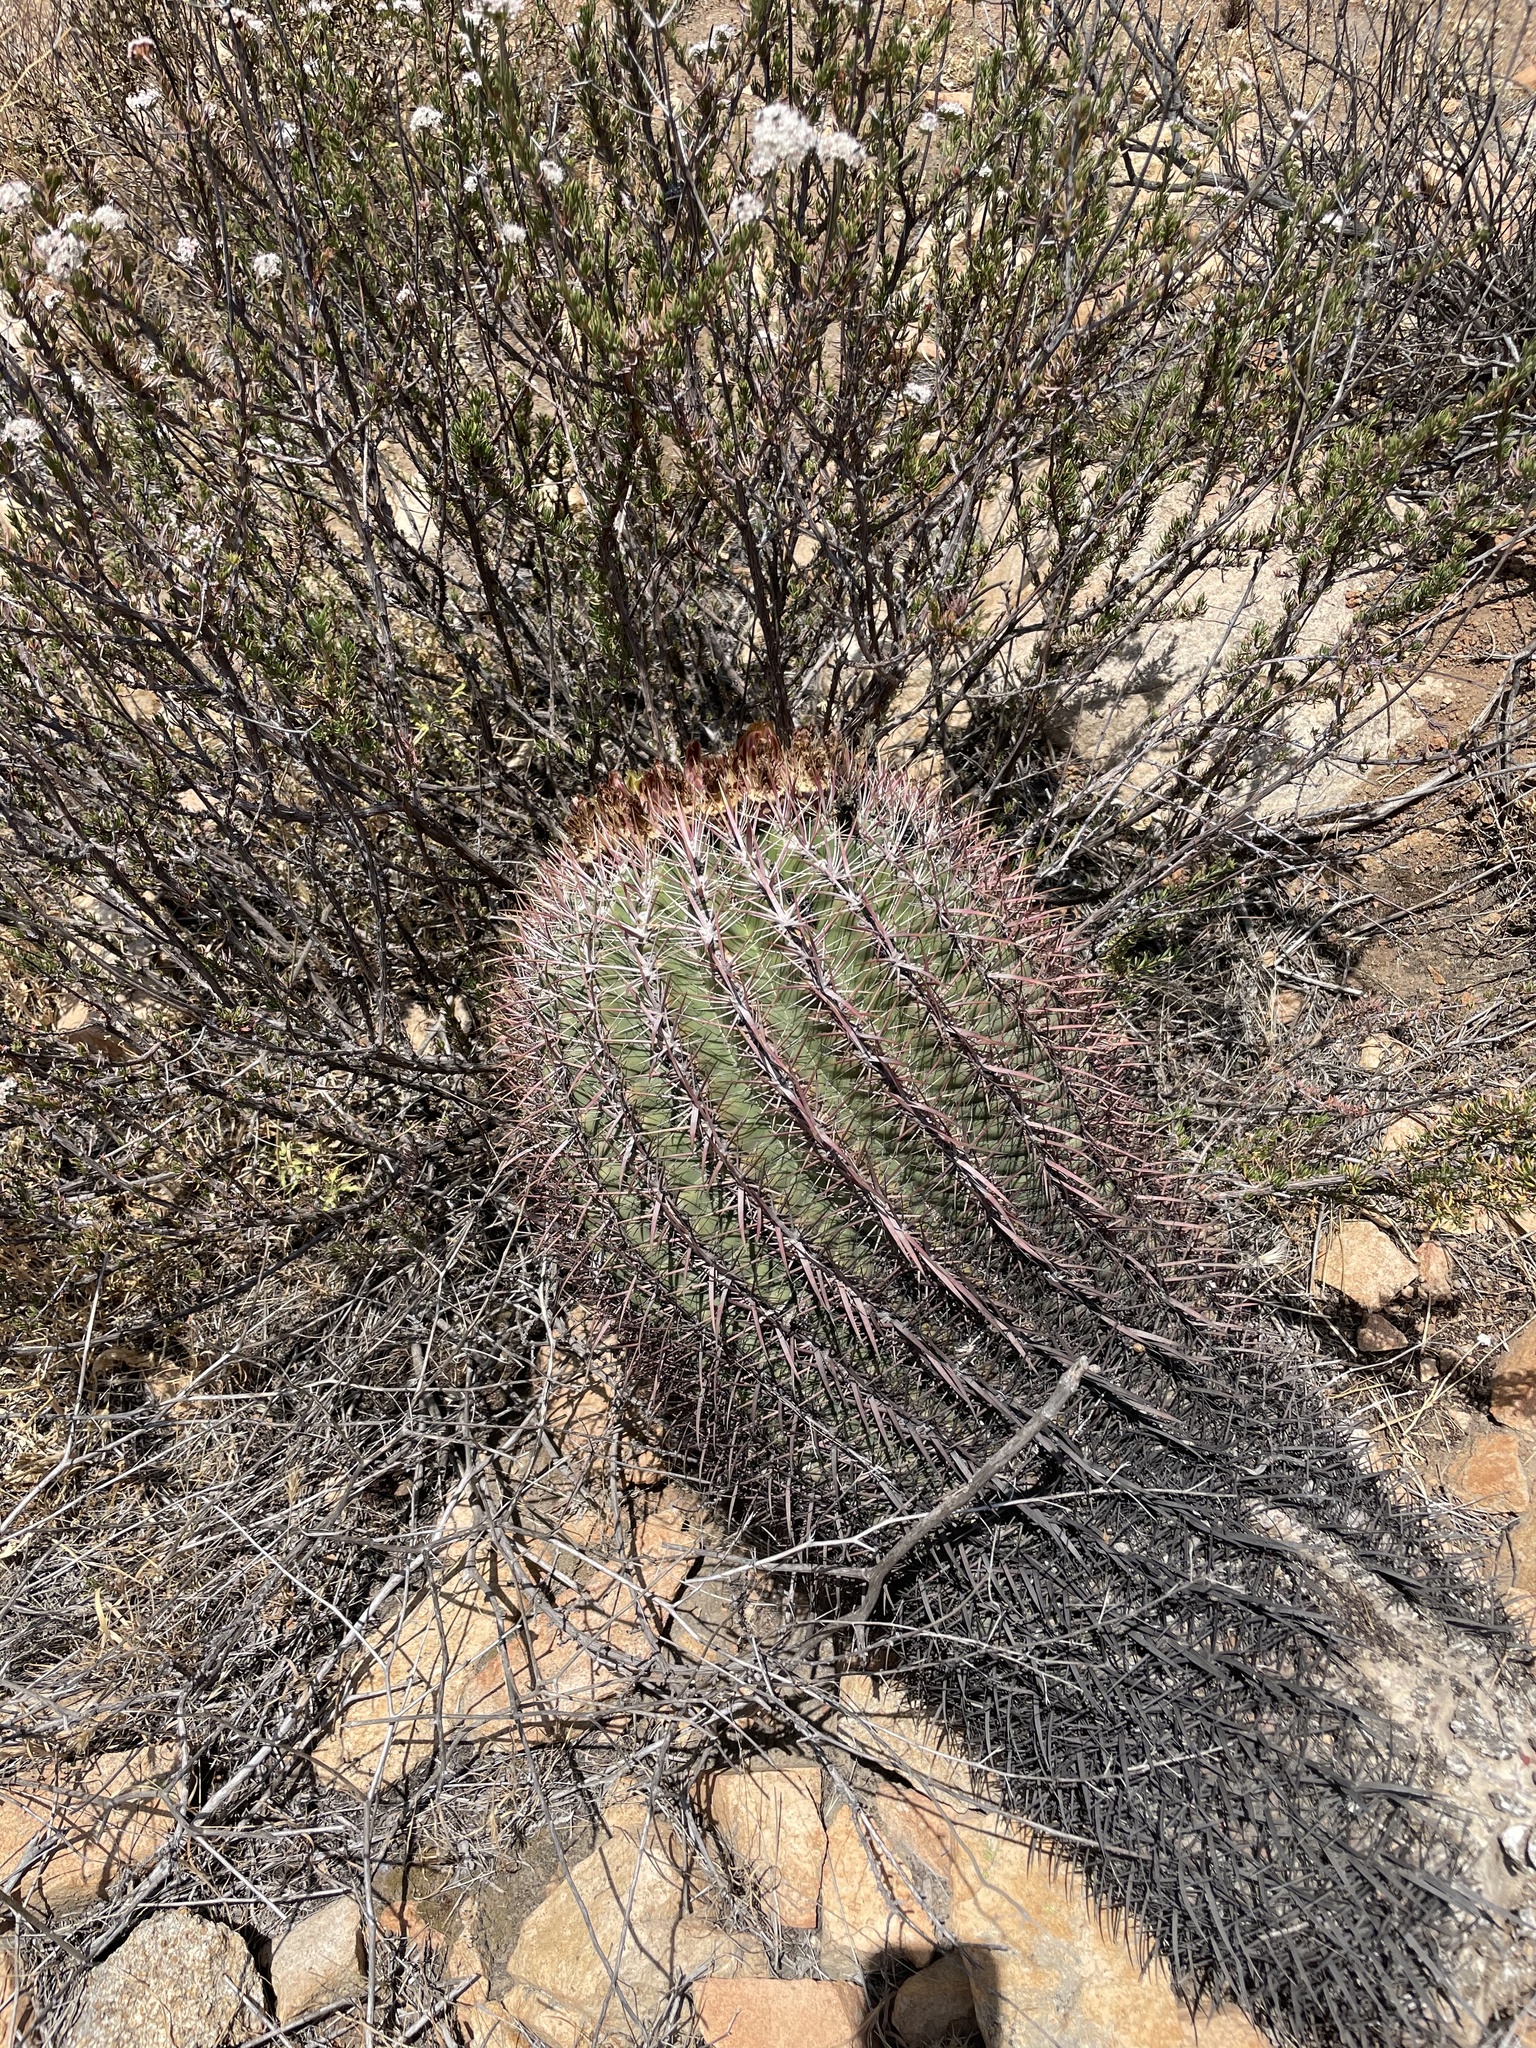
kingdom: Plantae
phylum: Tracheophyta
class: Magnoliopsida
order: Caryophyllales
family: Cactaceae
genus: Ferocactus
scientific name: Ferocactus viridescens
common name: San diego barrel cactus
